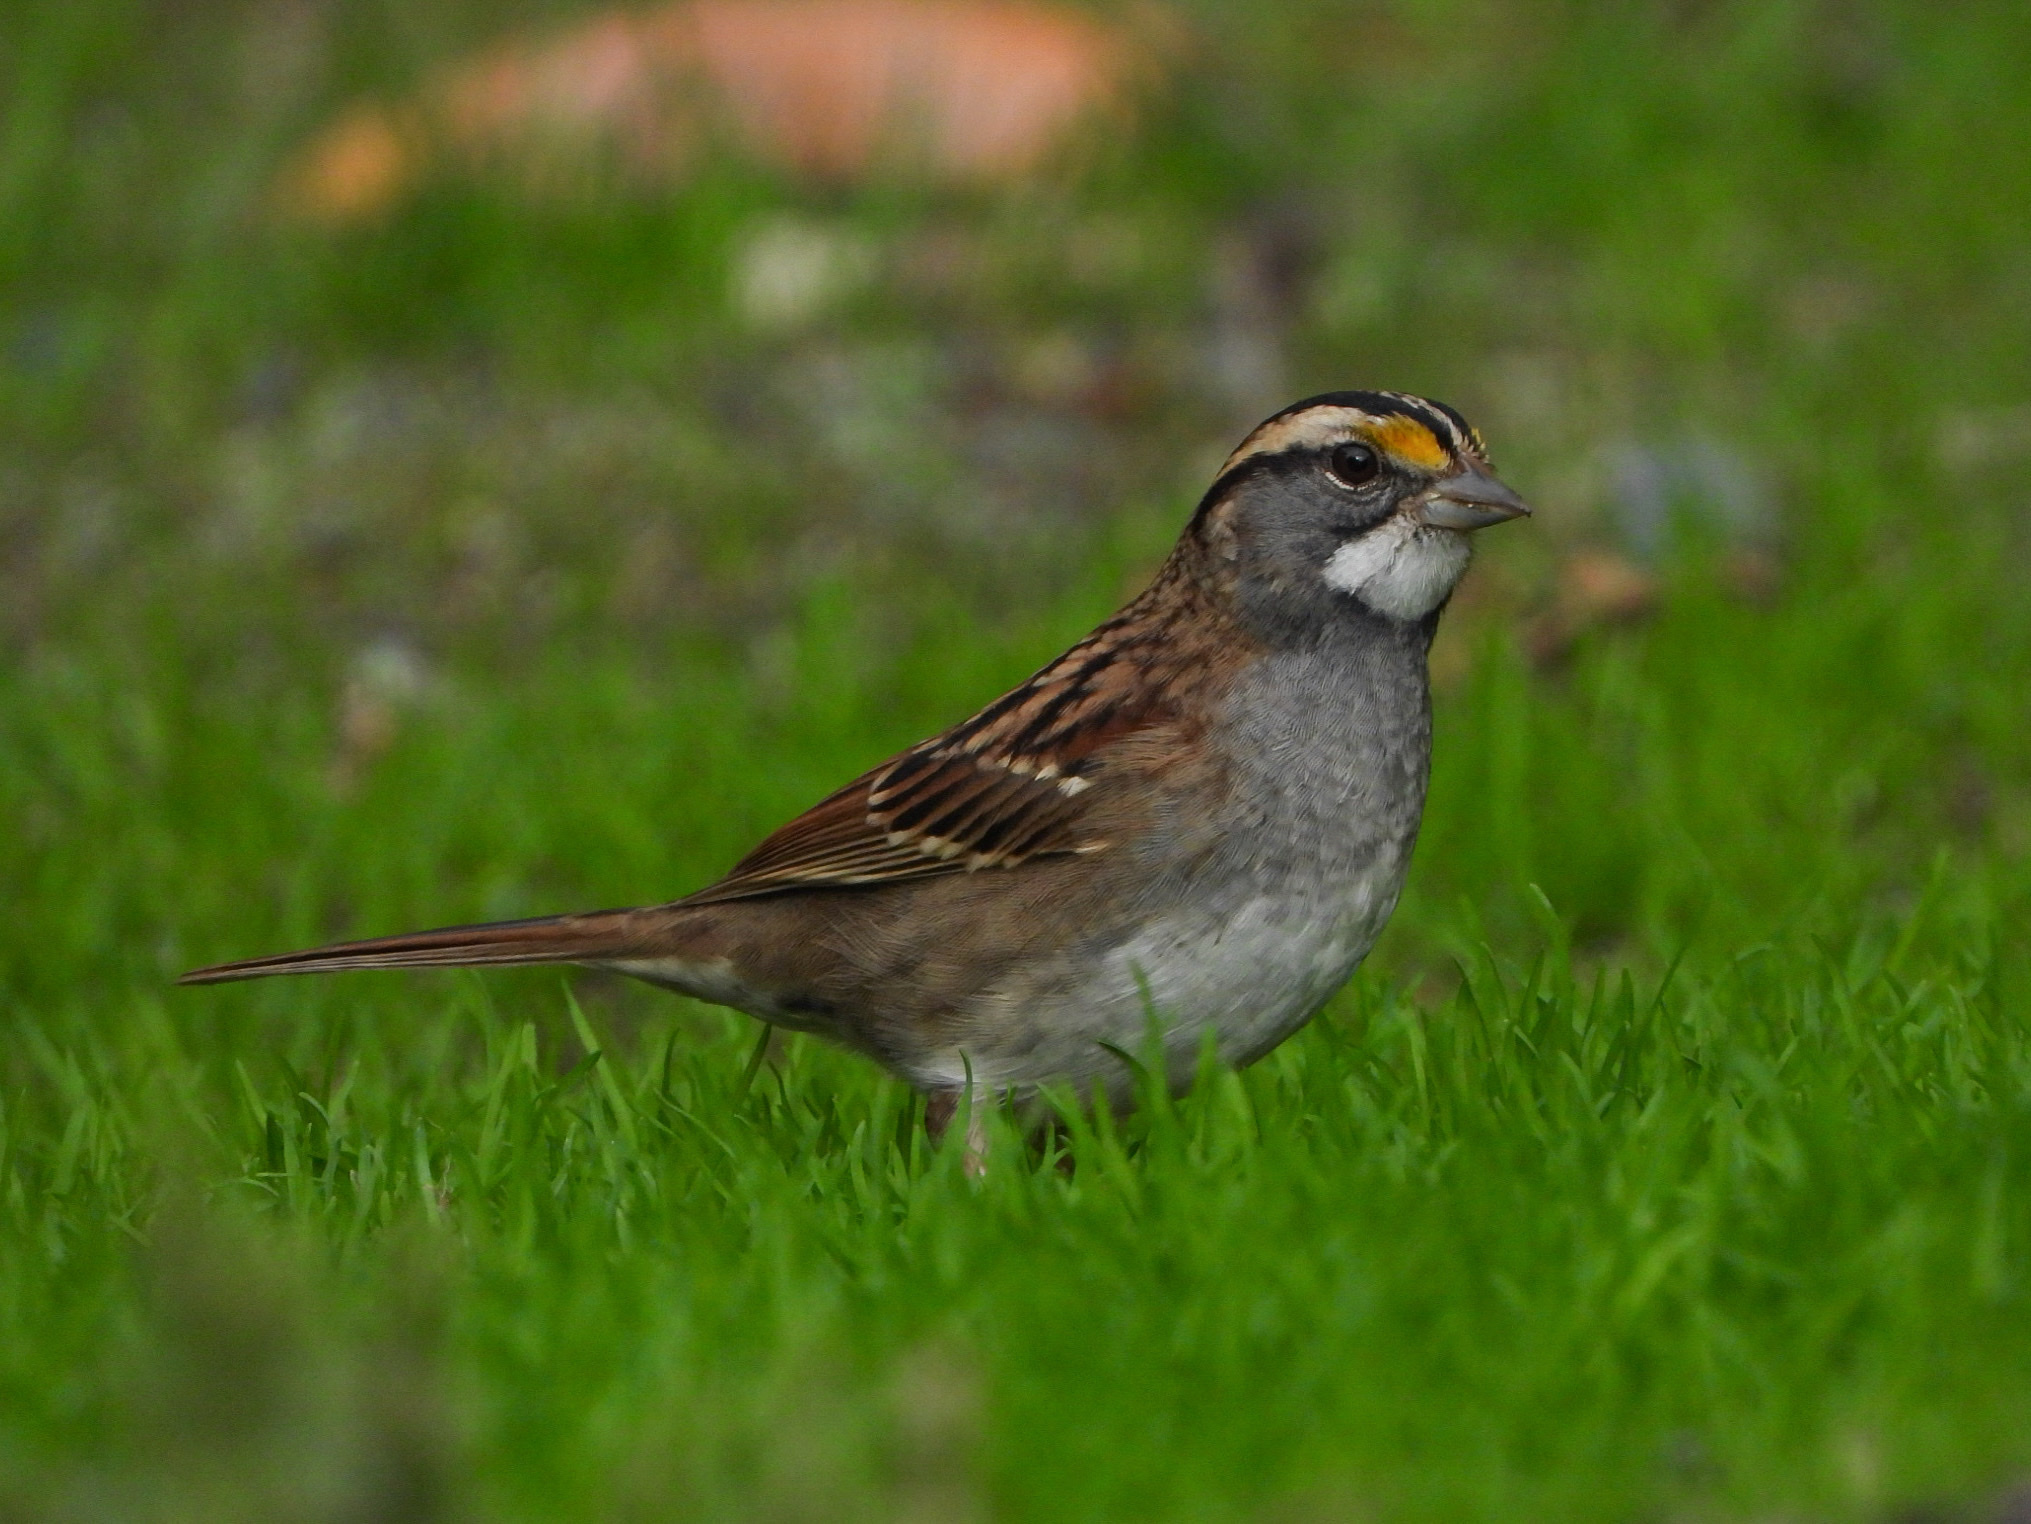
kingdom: Animalia
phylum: Chordata
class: Aves
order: Passeriformes
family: Passerellidae
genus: Zonotrichia
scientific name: Zonotrichia albicollis
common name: White-throated sparrow
